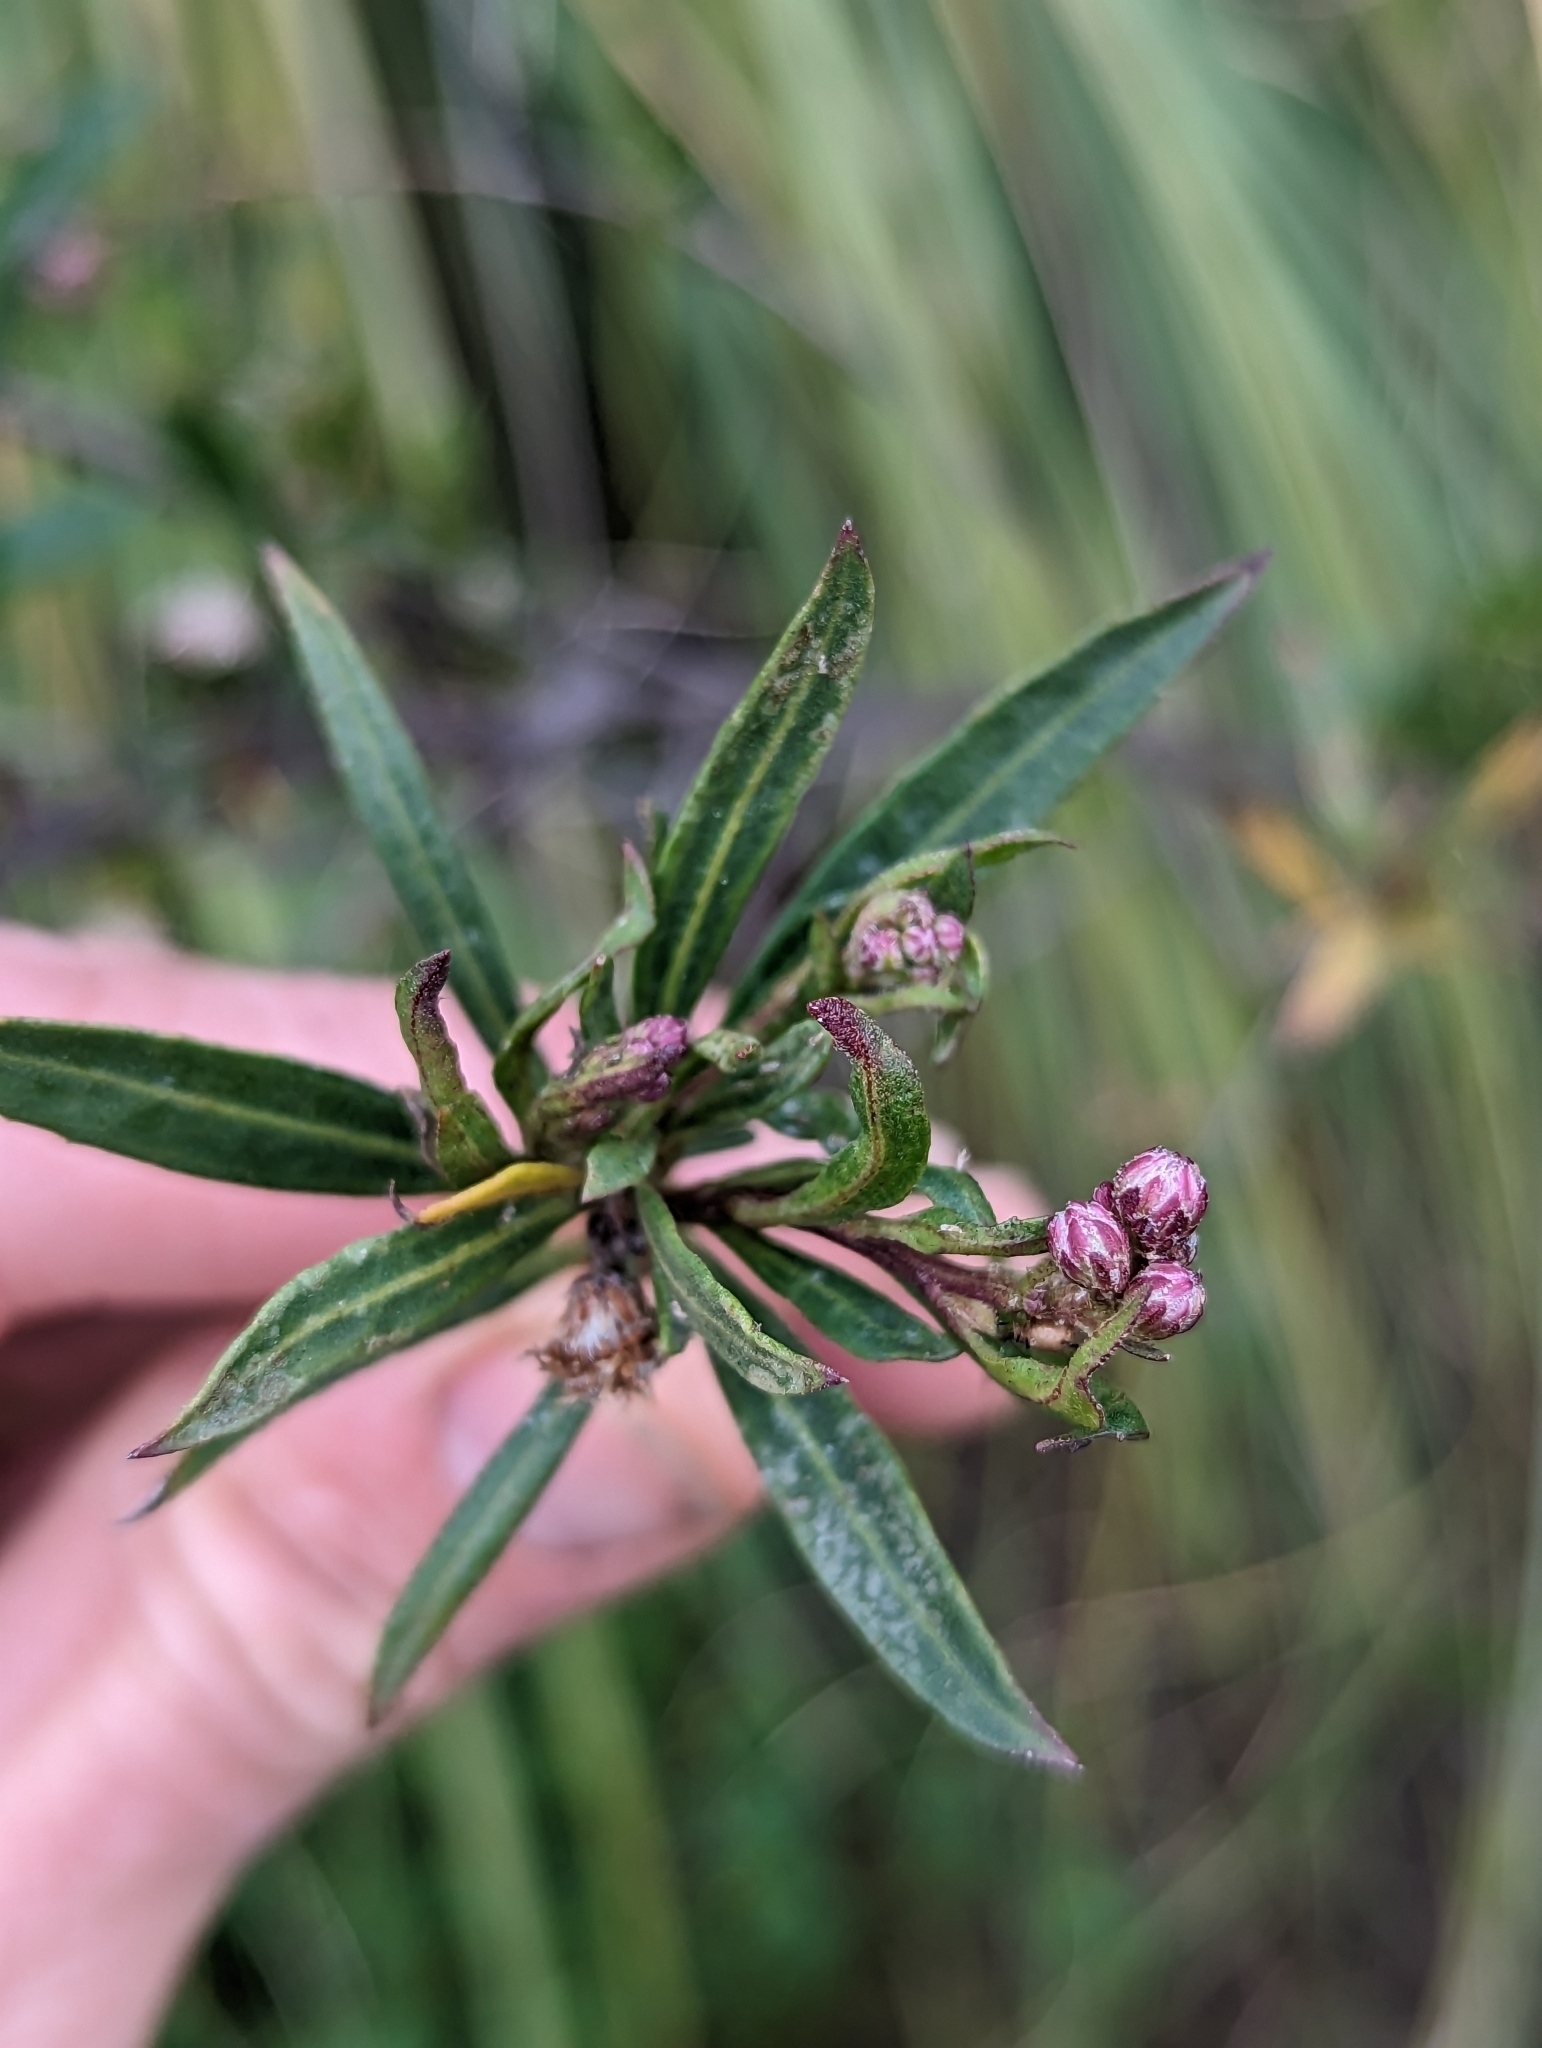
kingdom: Plantae
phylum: Tracheophyta
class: Magnoliopsida
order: Asterales
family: Asteraceae
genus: Baccharis
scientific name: Baccharis salicifolia
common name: Sticky baccharis
